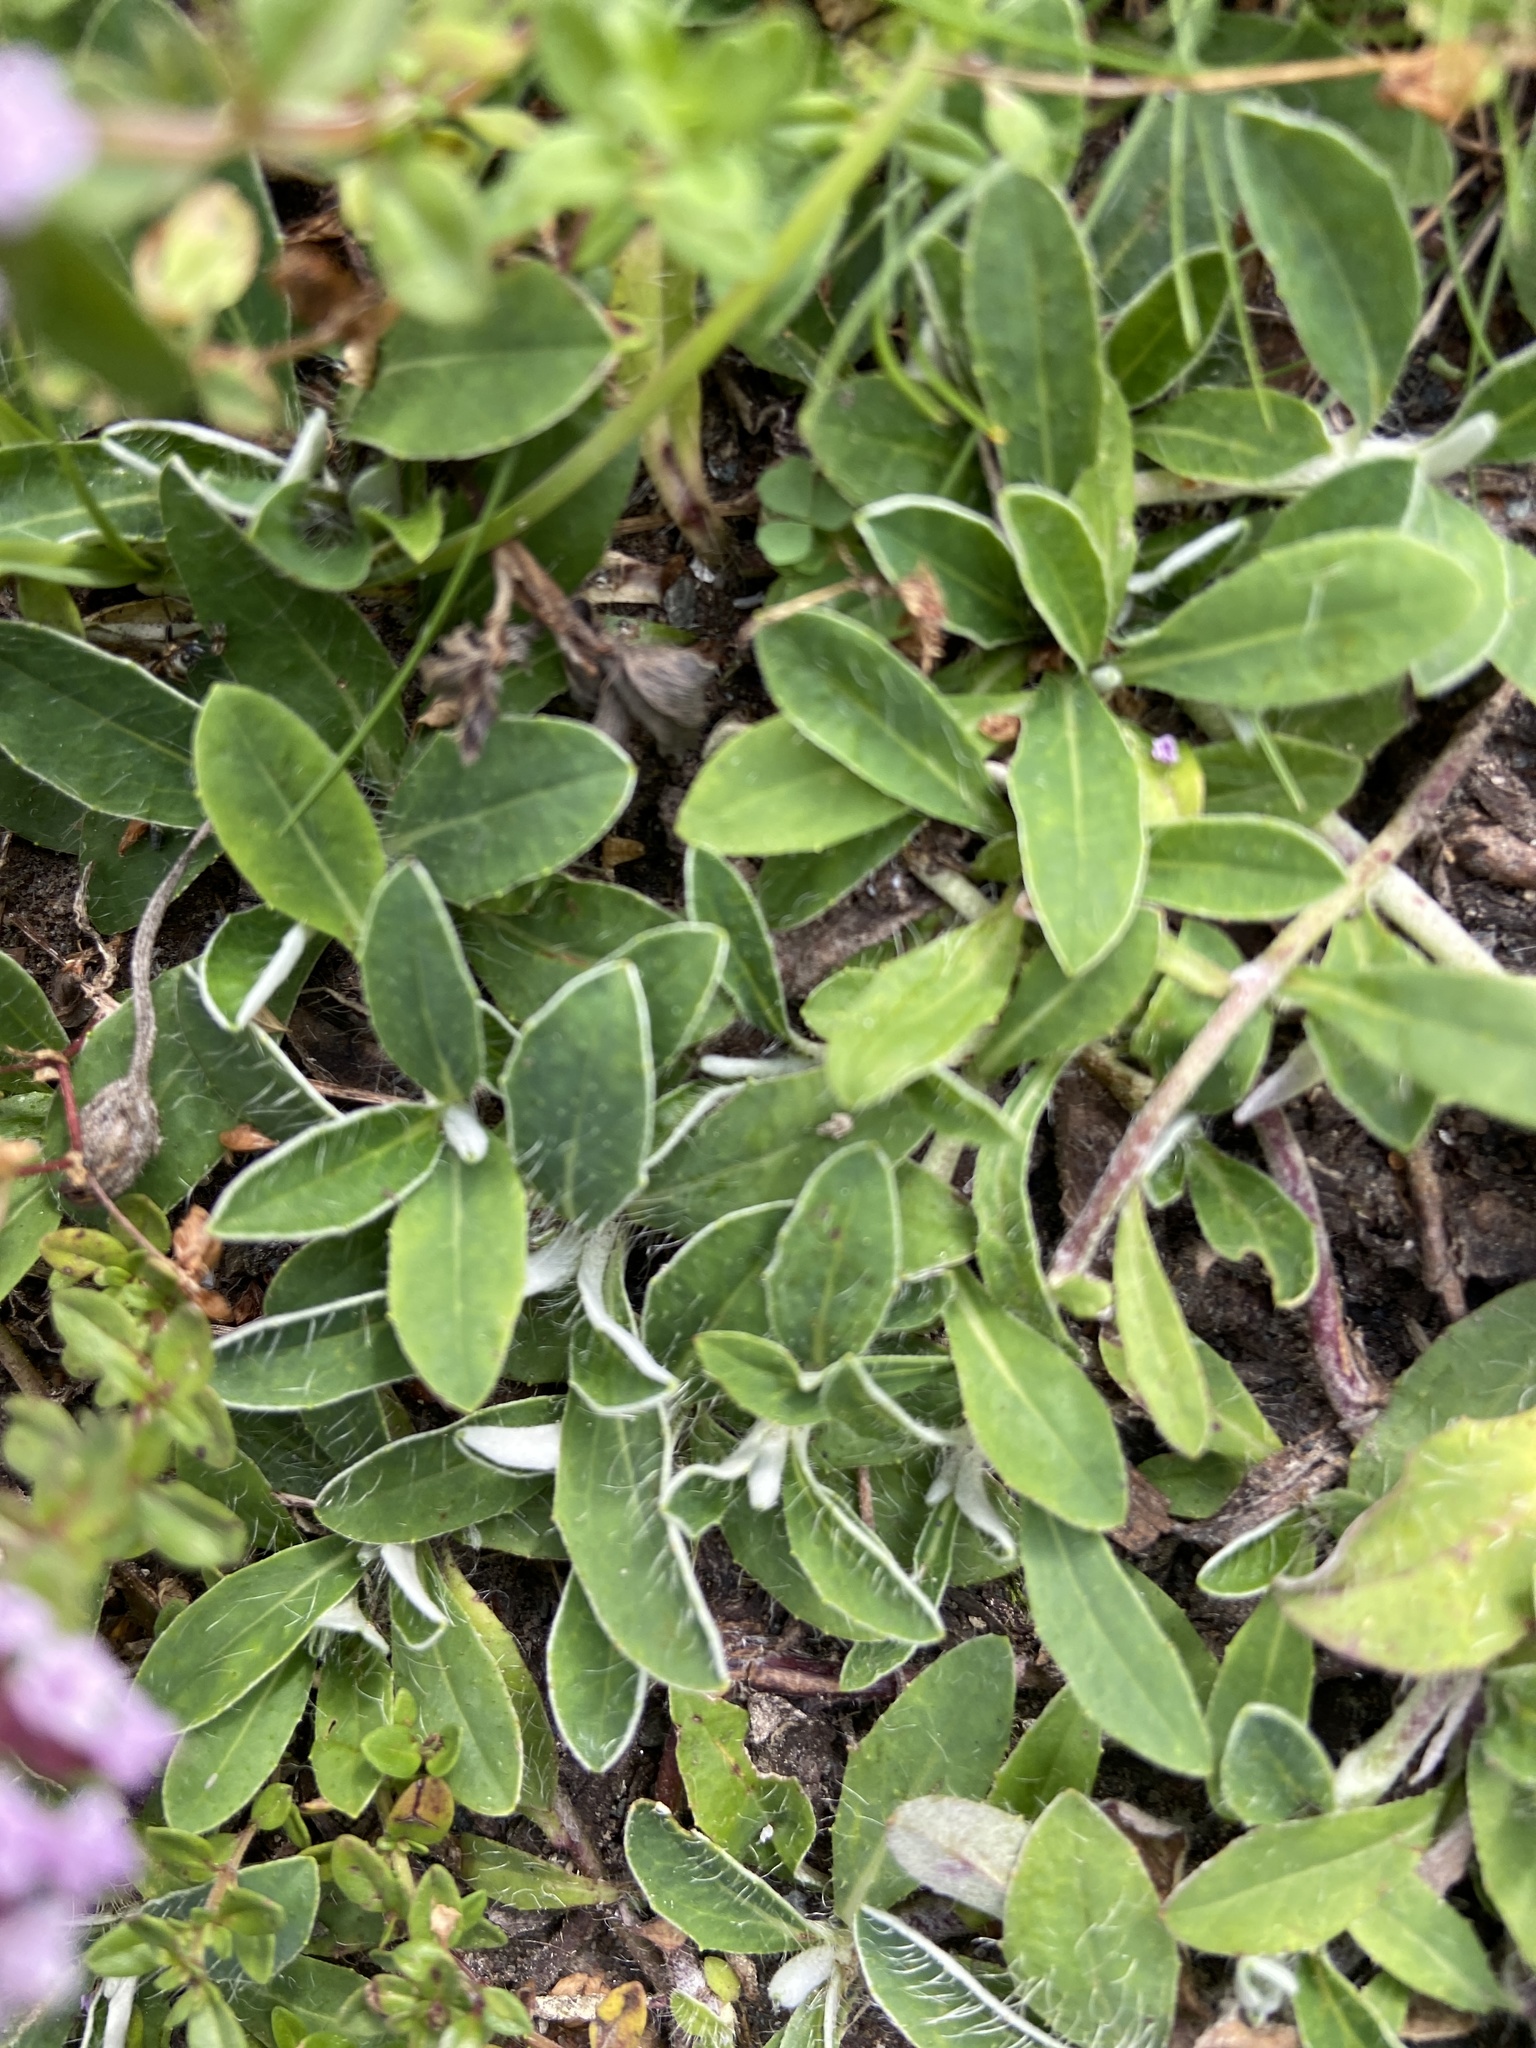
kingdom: Plantae
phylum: Tracheophyta
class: Magnoliopsida
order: Lamiales
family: Lamiaceae
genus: Thymus
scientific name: Thymus serpyllum
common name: Breckland thyme
